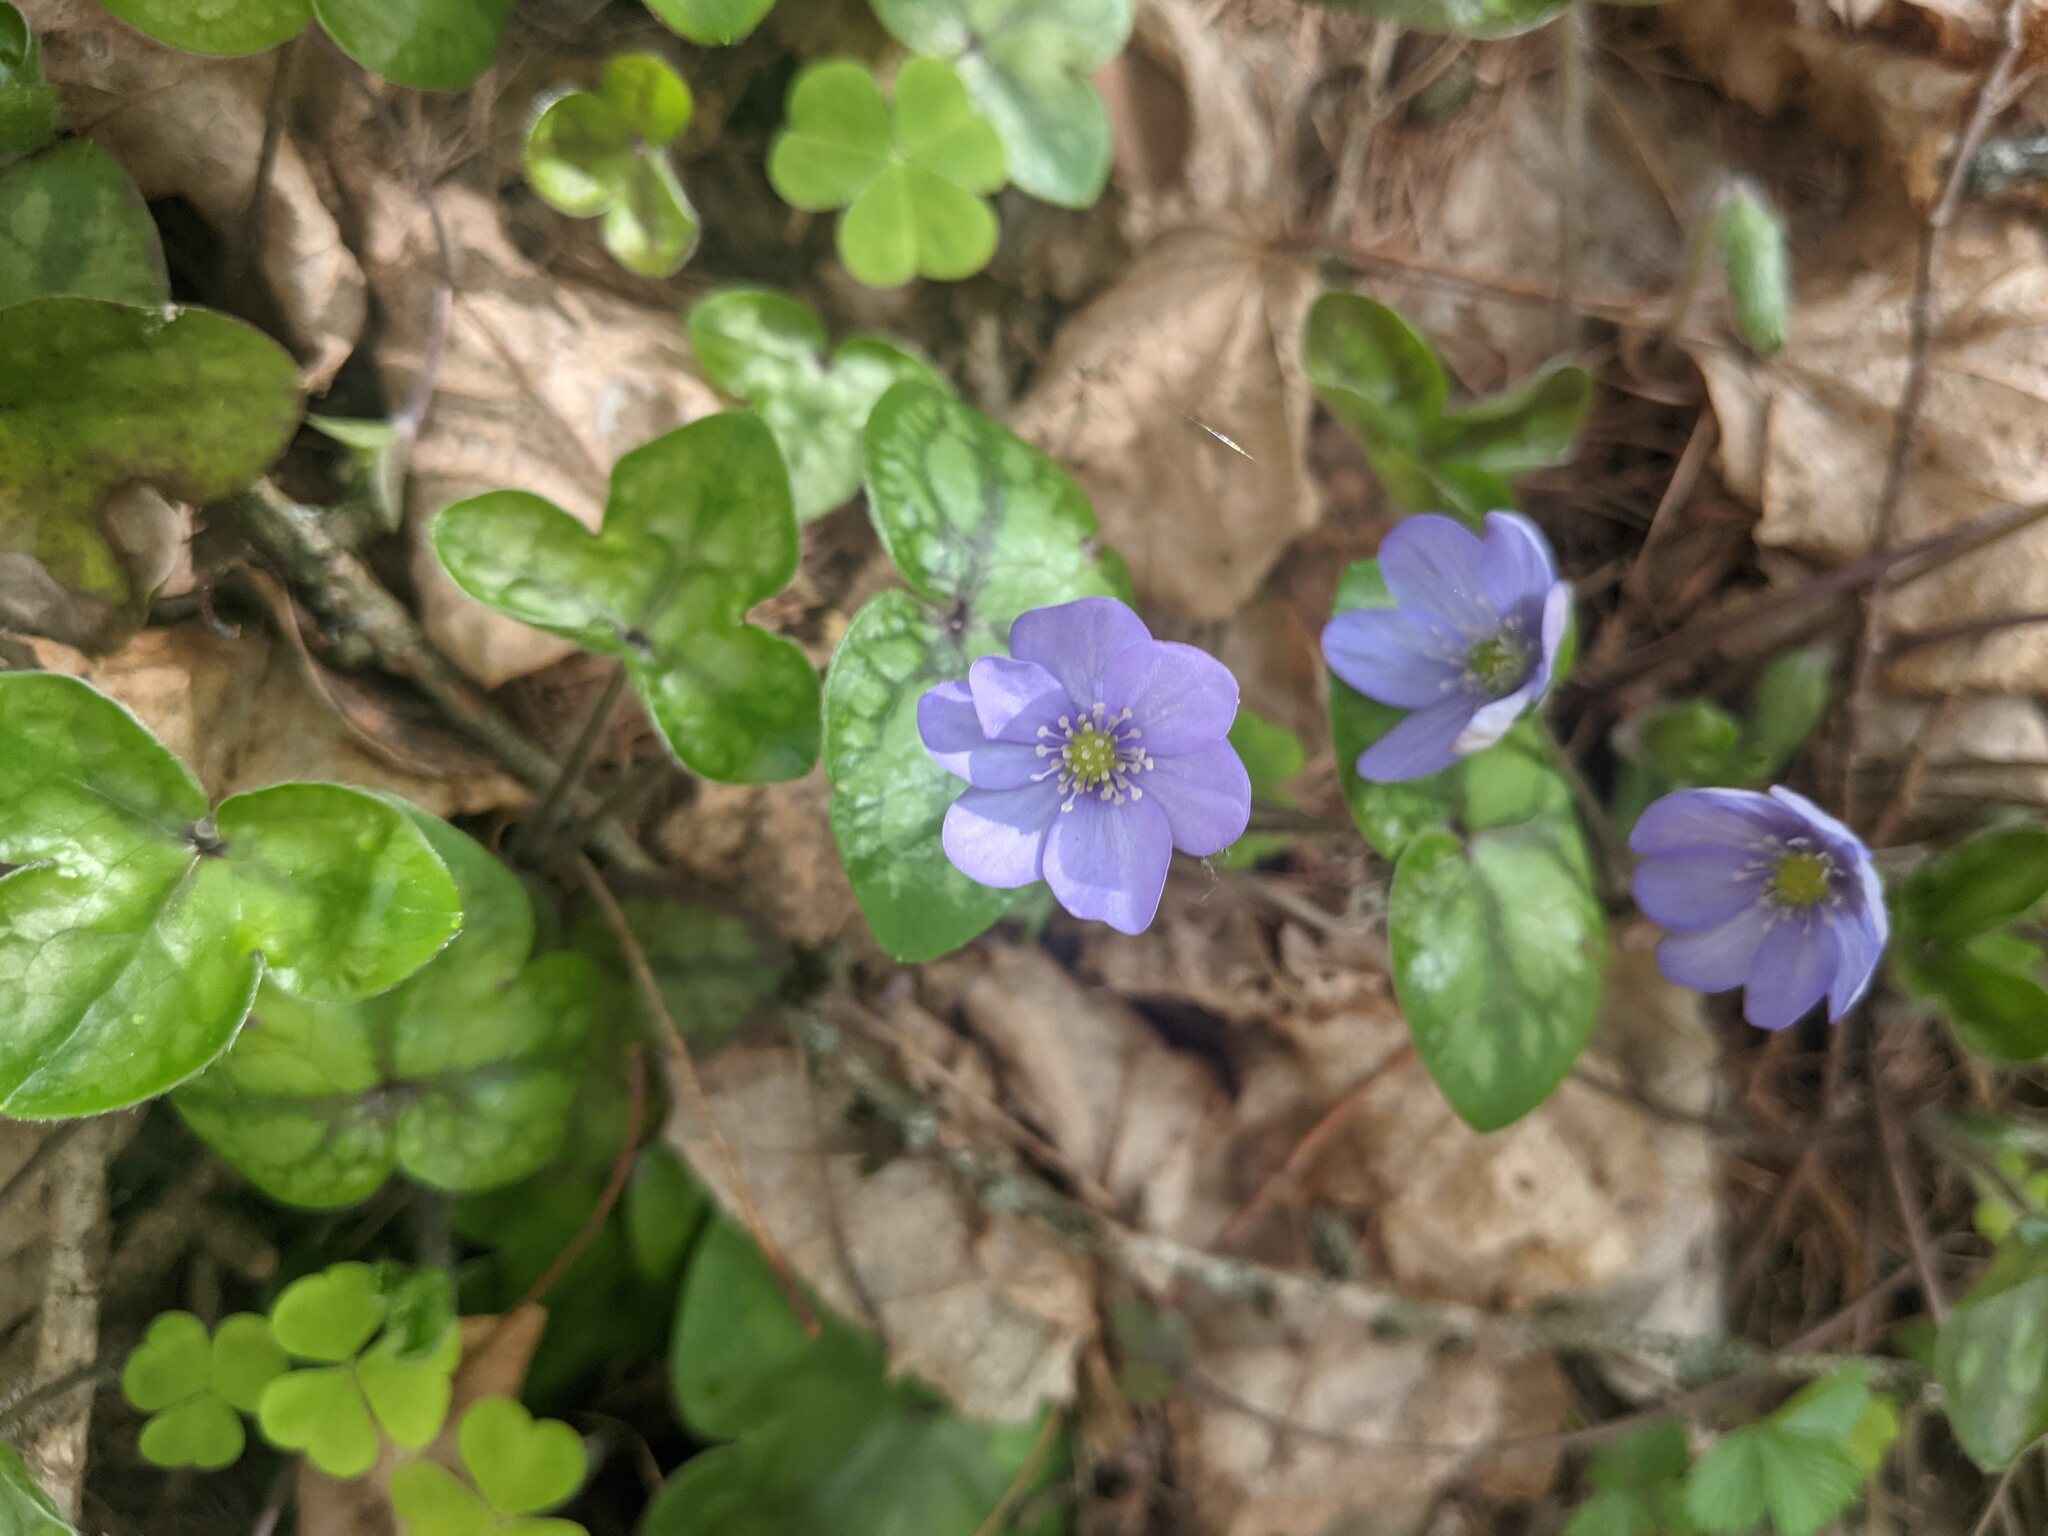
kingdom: Plantae
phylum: Tracheophyta
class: Magnoliopsida
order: Ranunculales
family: Ranunculaceae
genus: Hepatica
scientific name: Hepatica nobilis
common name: Liverleaf
